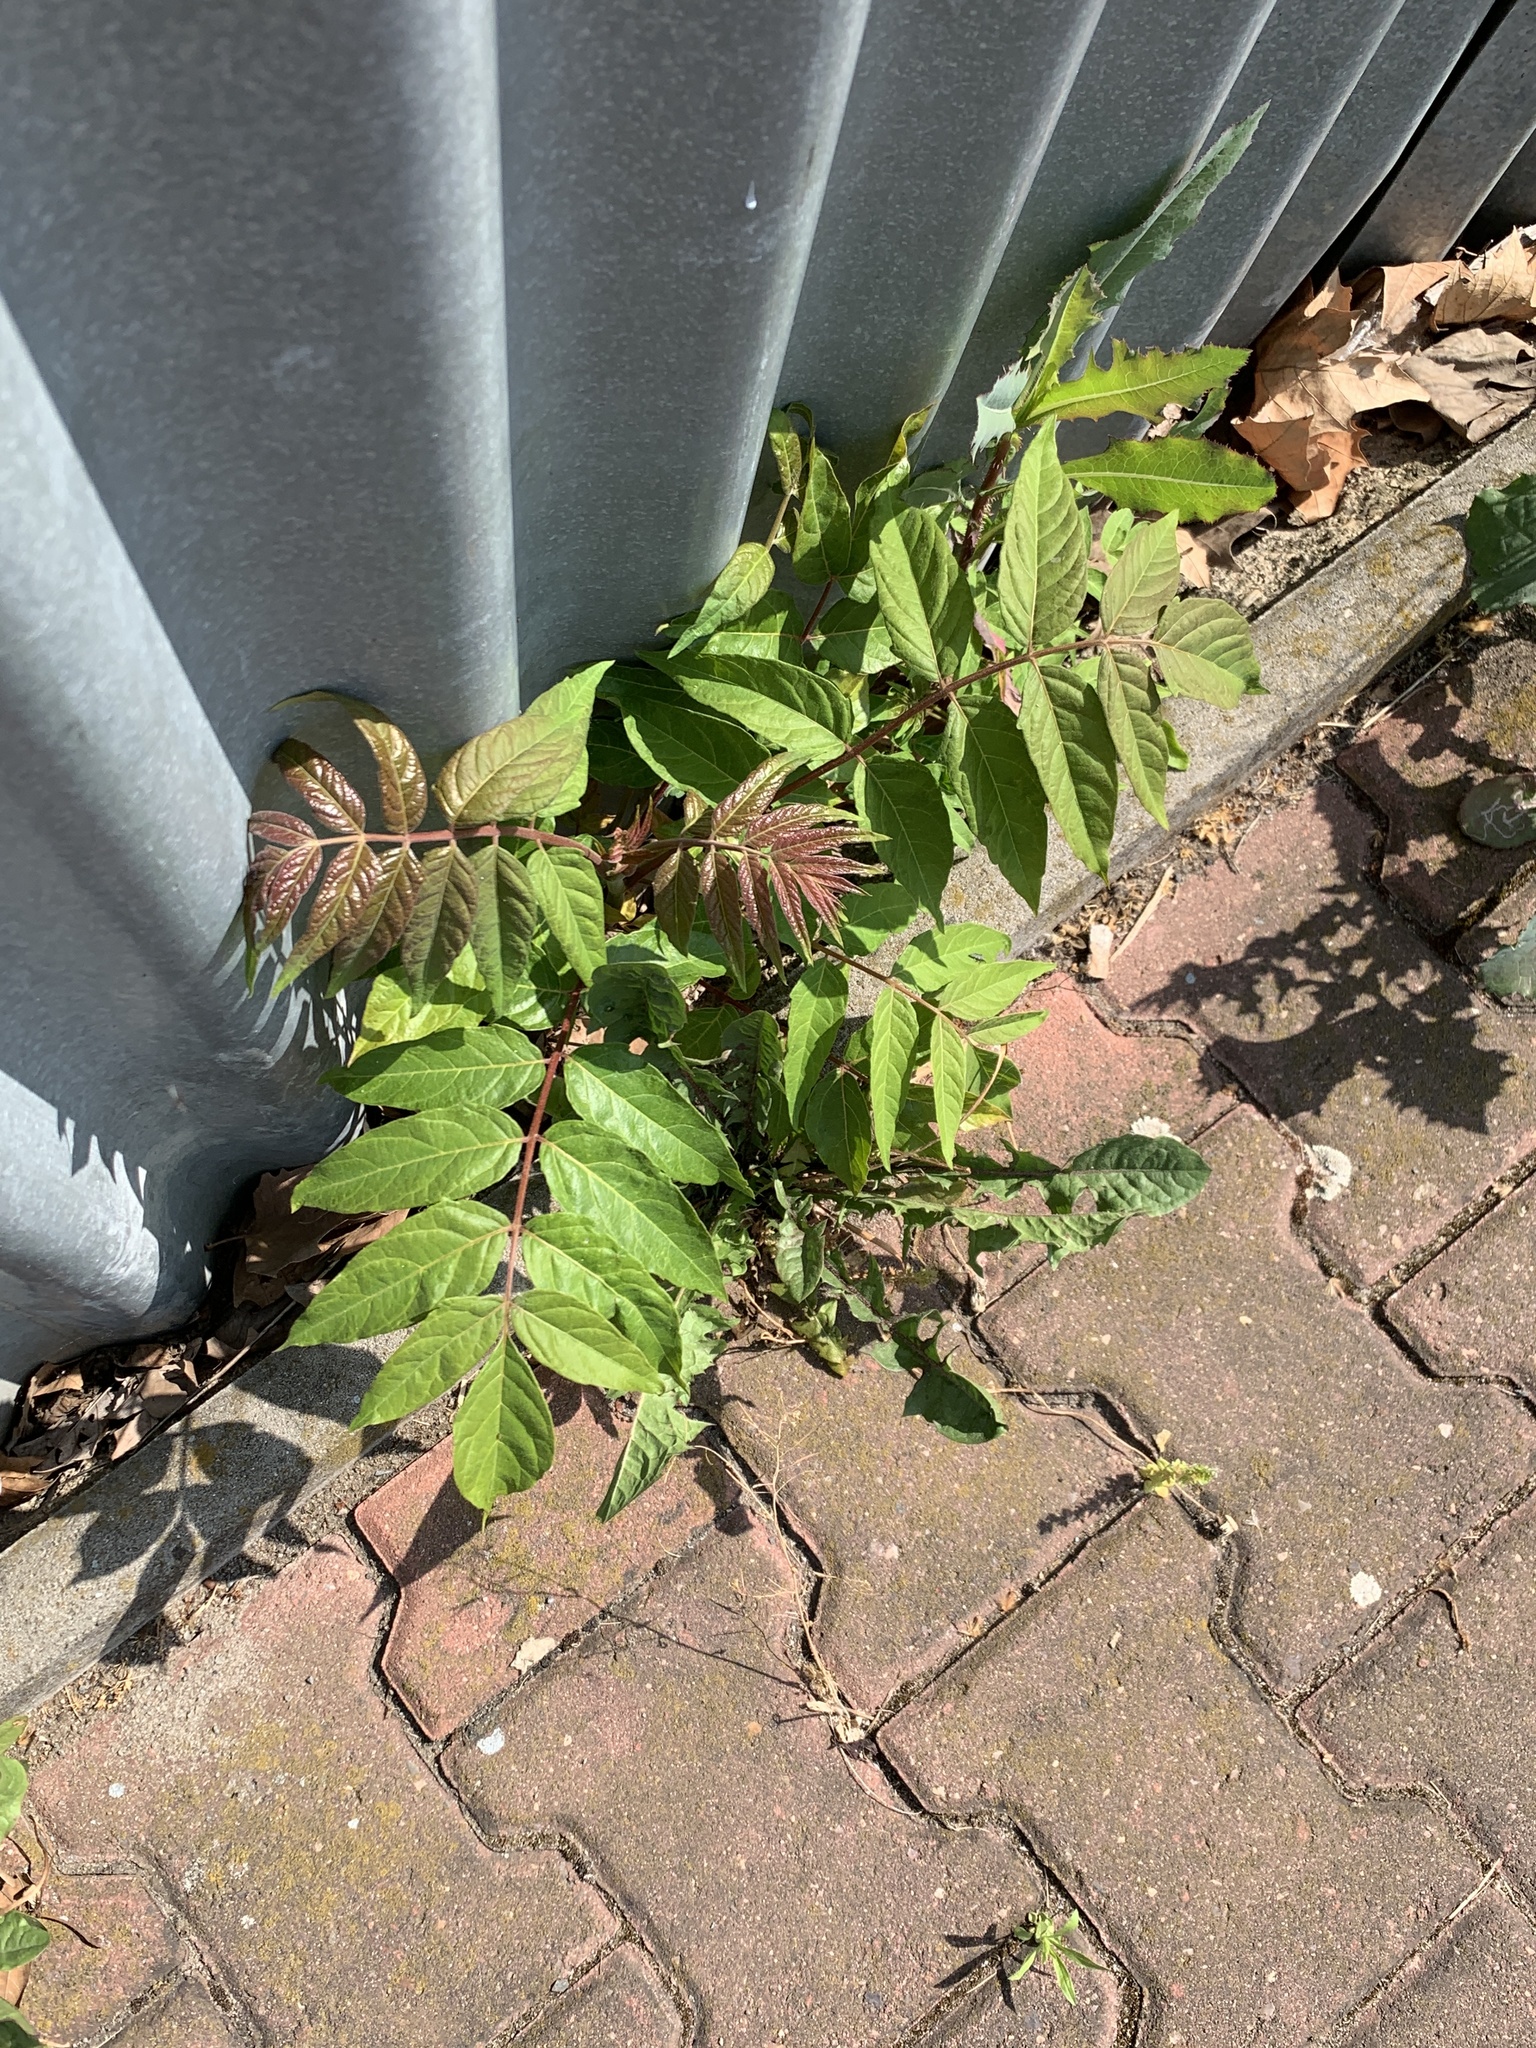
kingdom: Plantae
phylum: Tracheophyta
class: Magnoliopsida
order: Sapindales
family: Simaroubaceae
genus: Ailanthus
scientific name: Ailanthus altissima
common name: Tree-of-heaven
